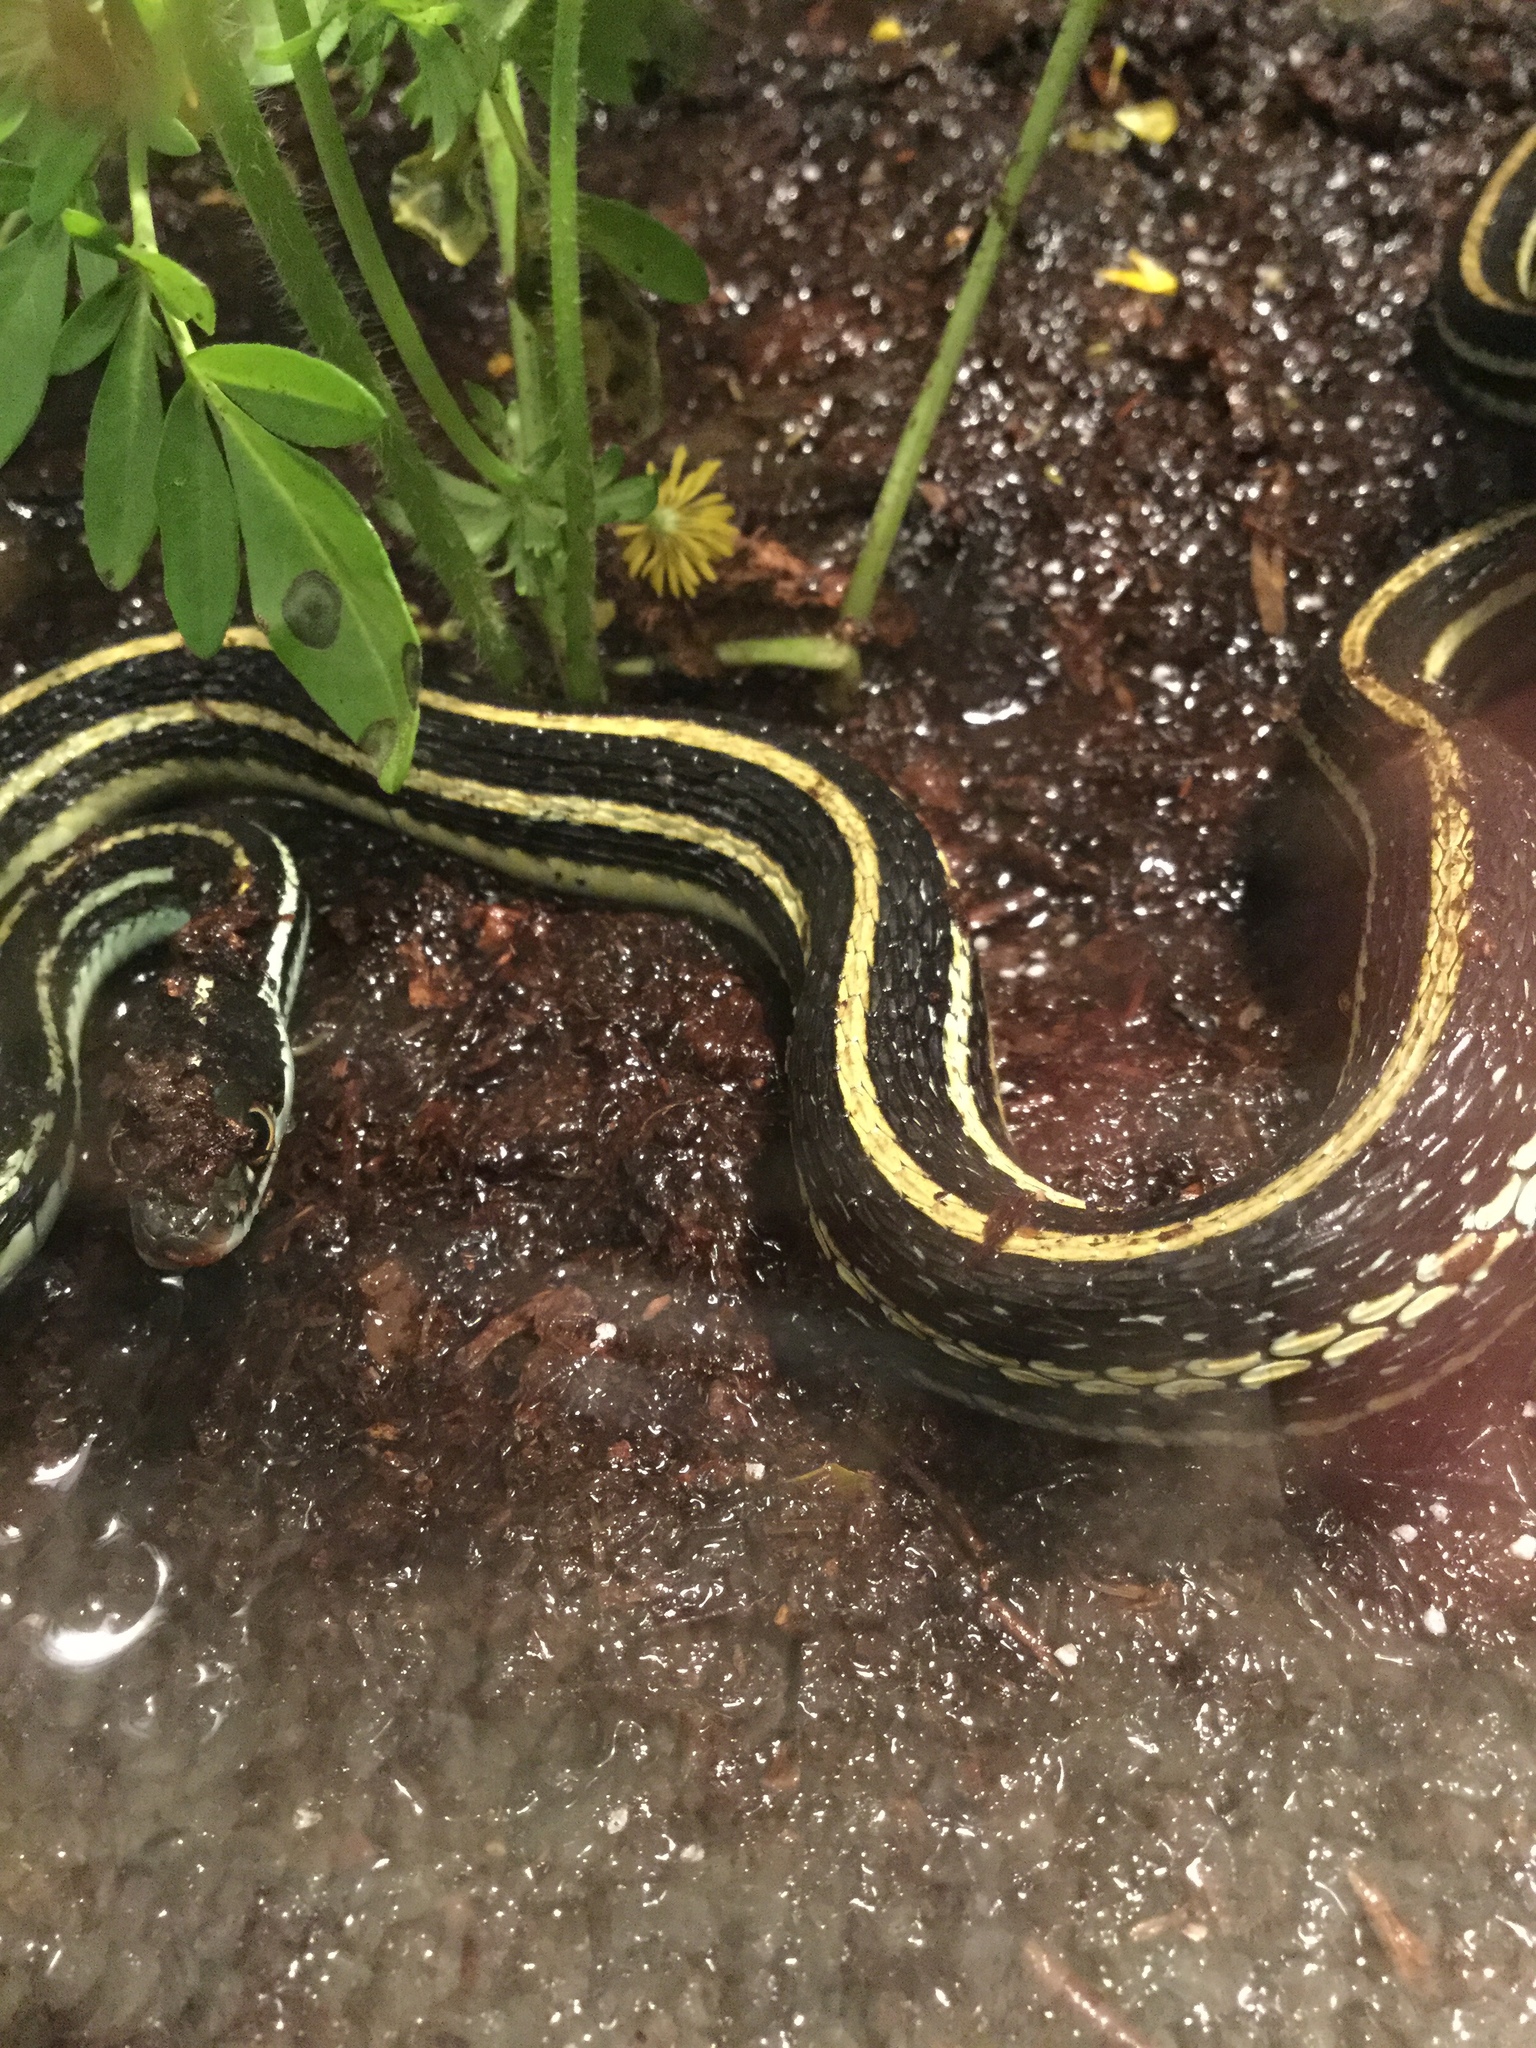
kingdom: Animalia
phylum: Chordata
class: Squamata
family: Colubridae
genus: Thamnophis
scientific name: Thamnophis proximus
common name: Western ribbon snake
